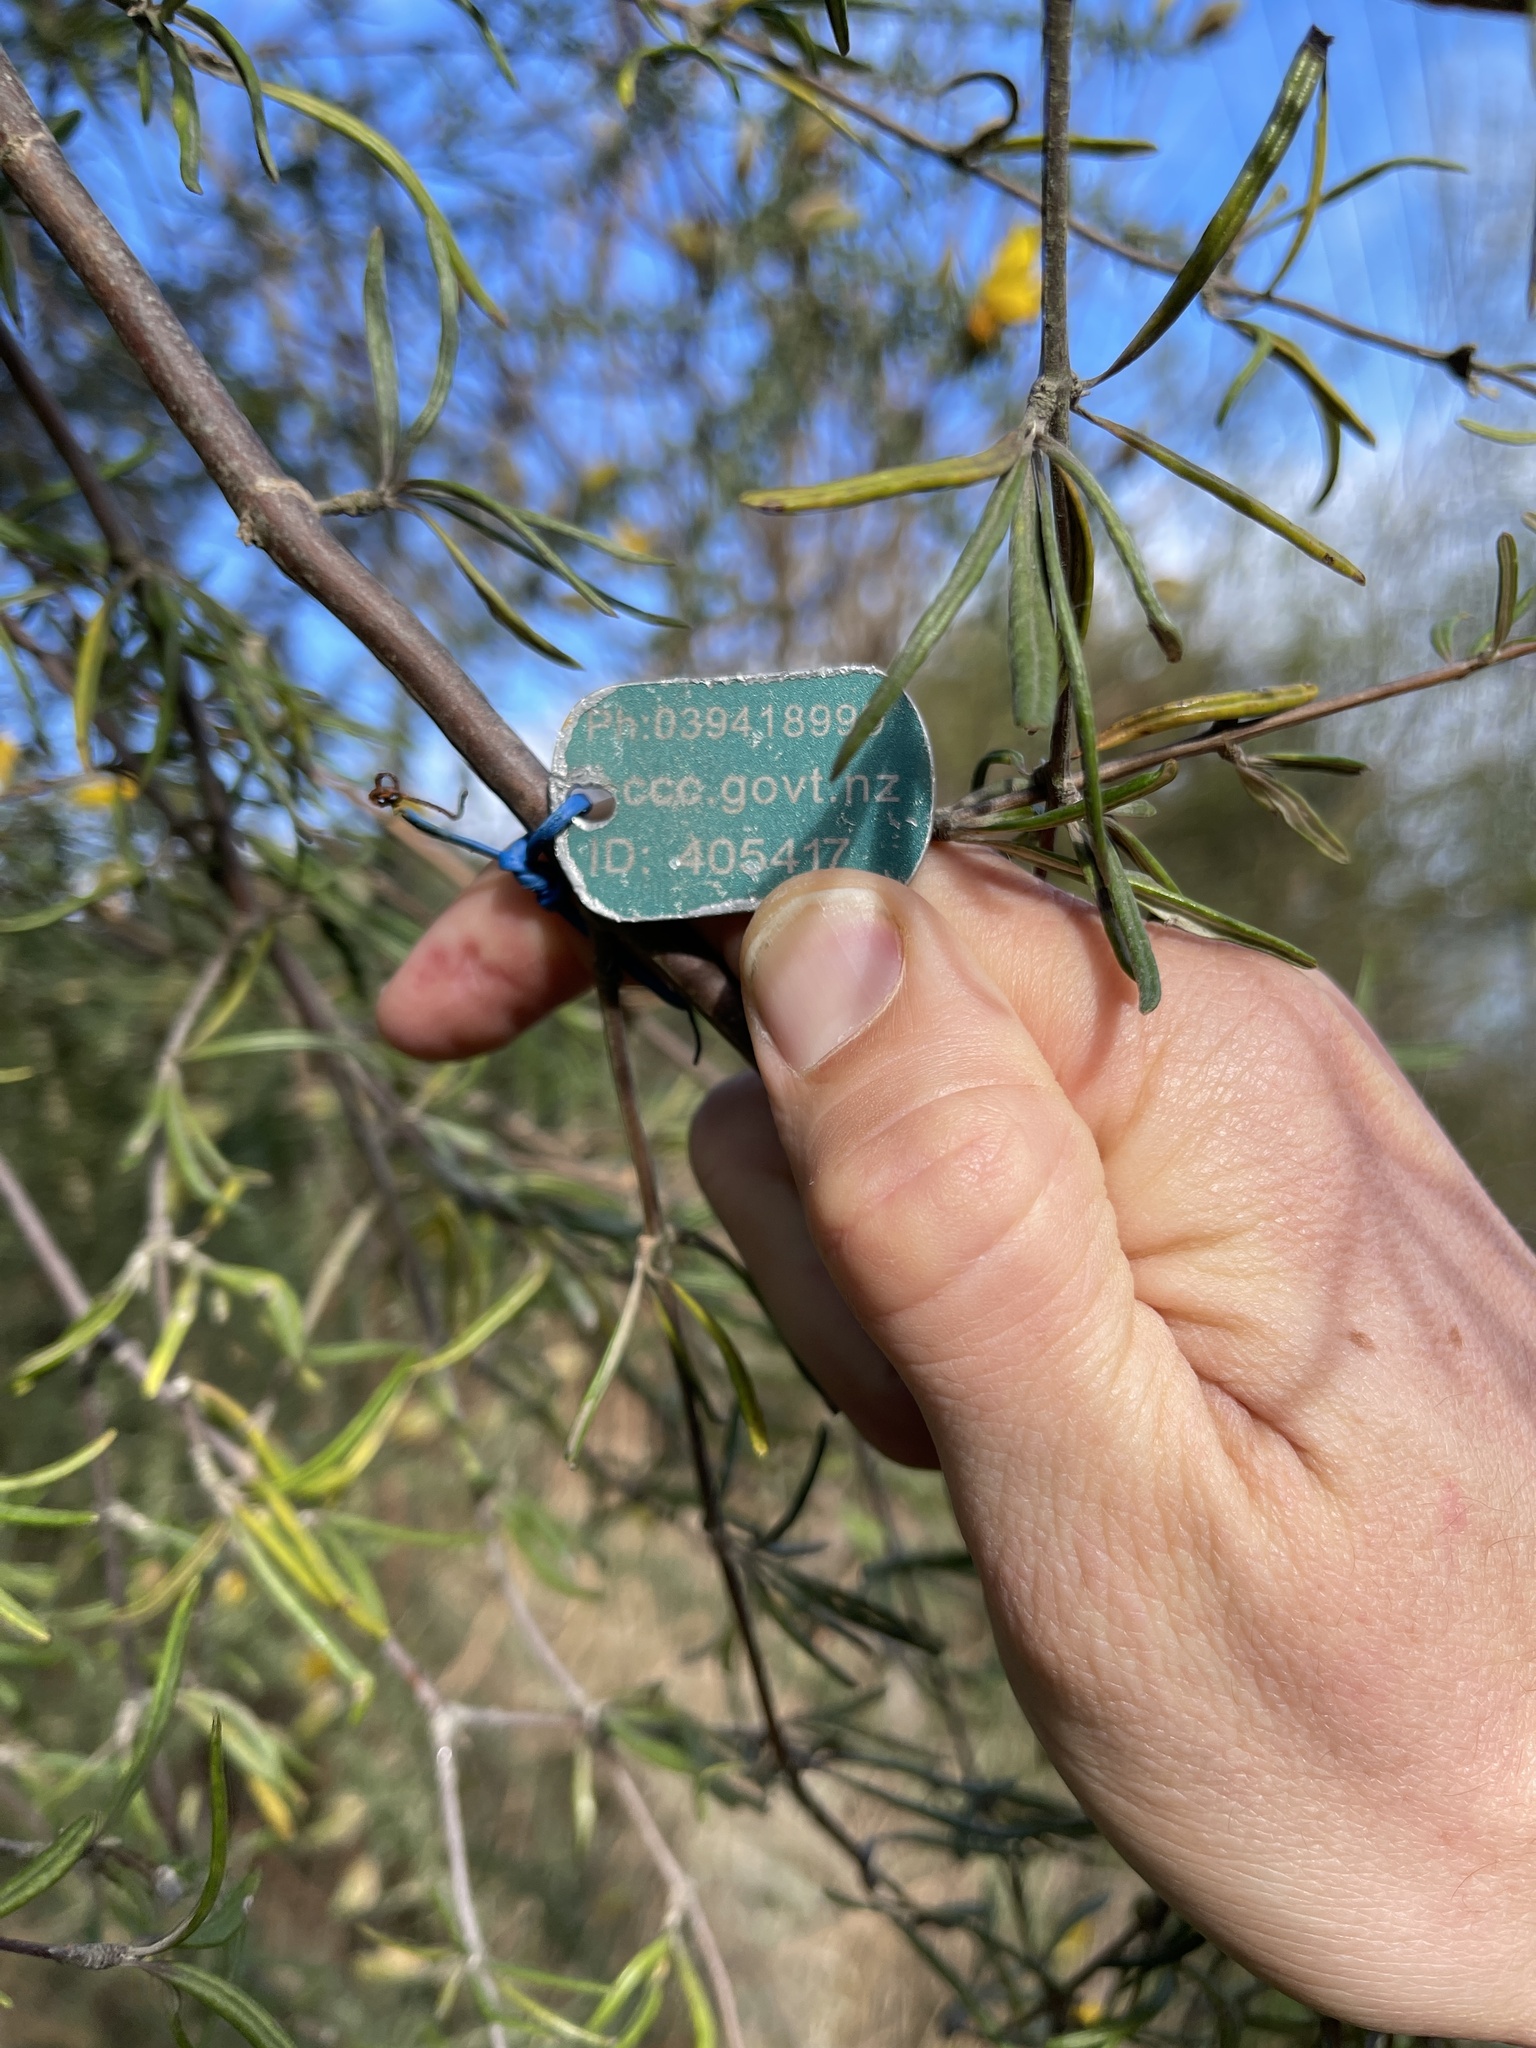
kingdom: Plantae
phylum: Tracheophyta
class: Magnoliopsida
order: Asterales
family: Asteraceae
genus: Olearia
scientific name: Olearia lineata
